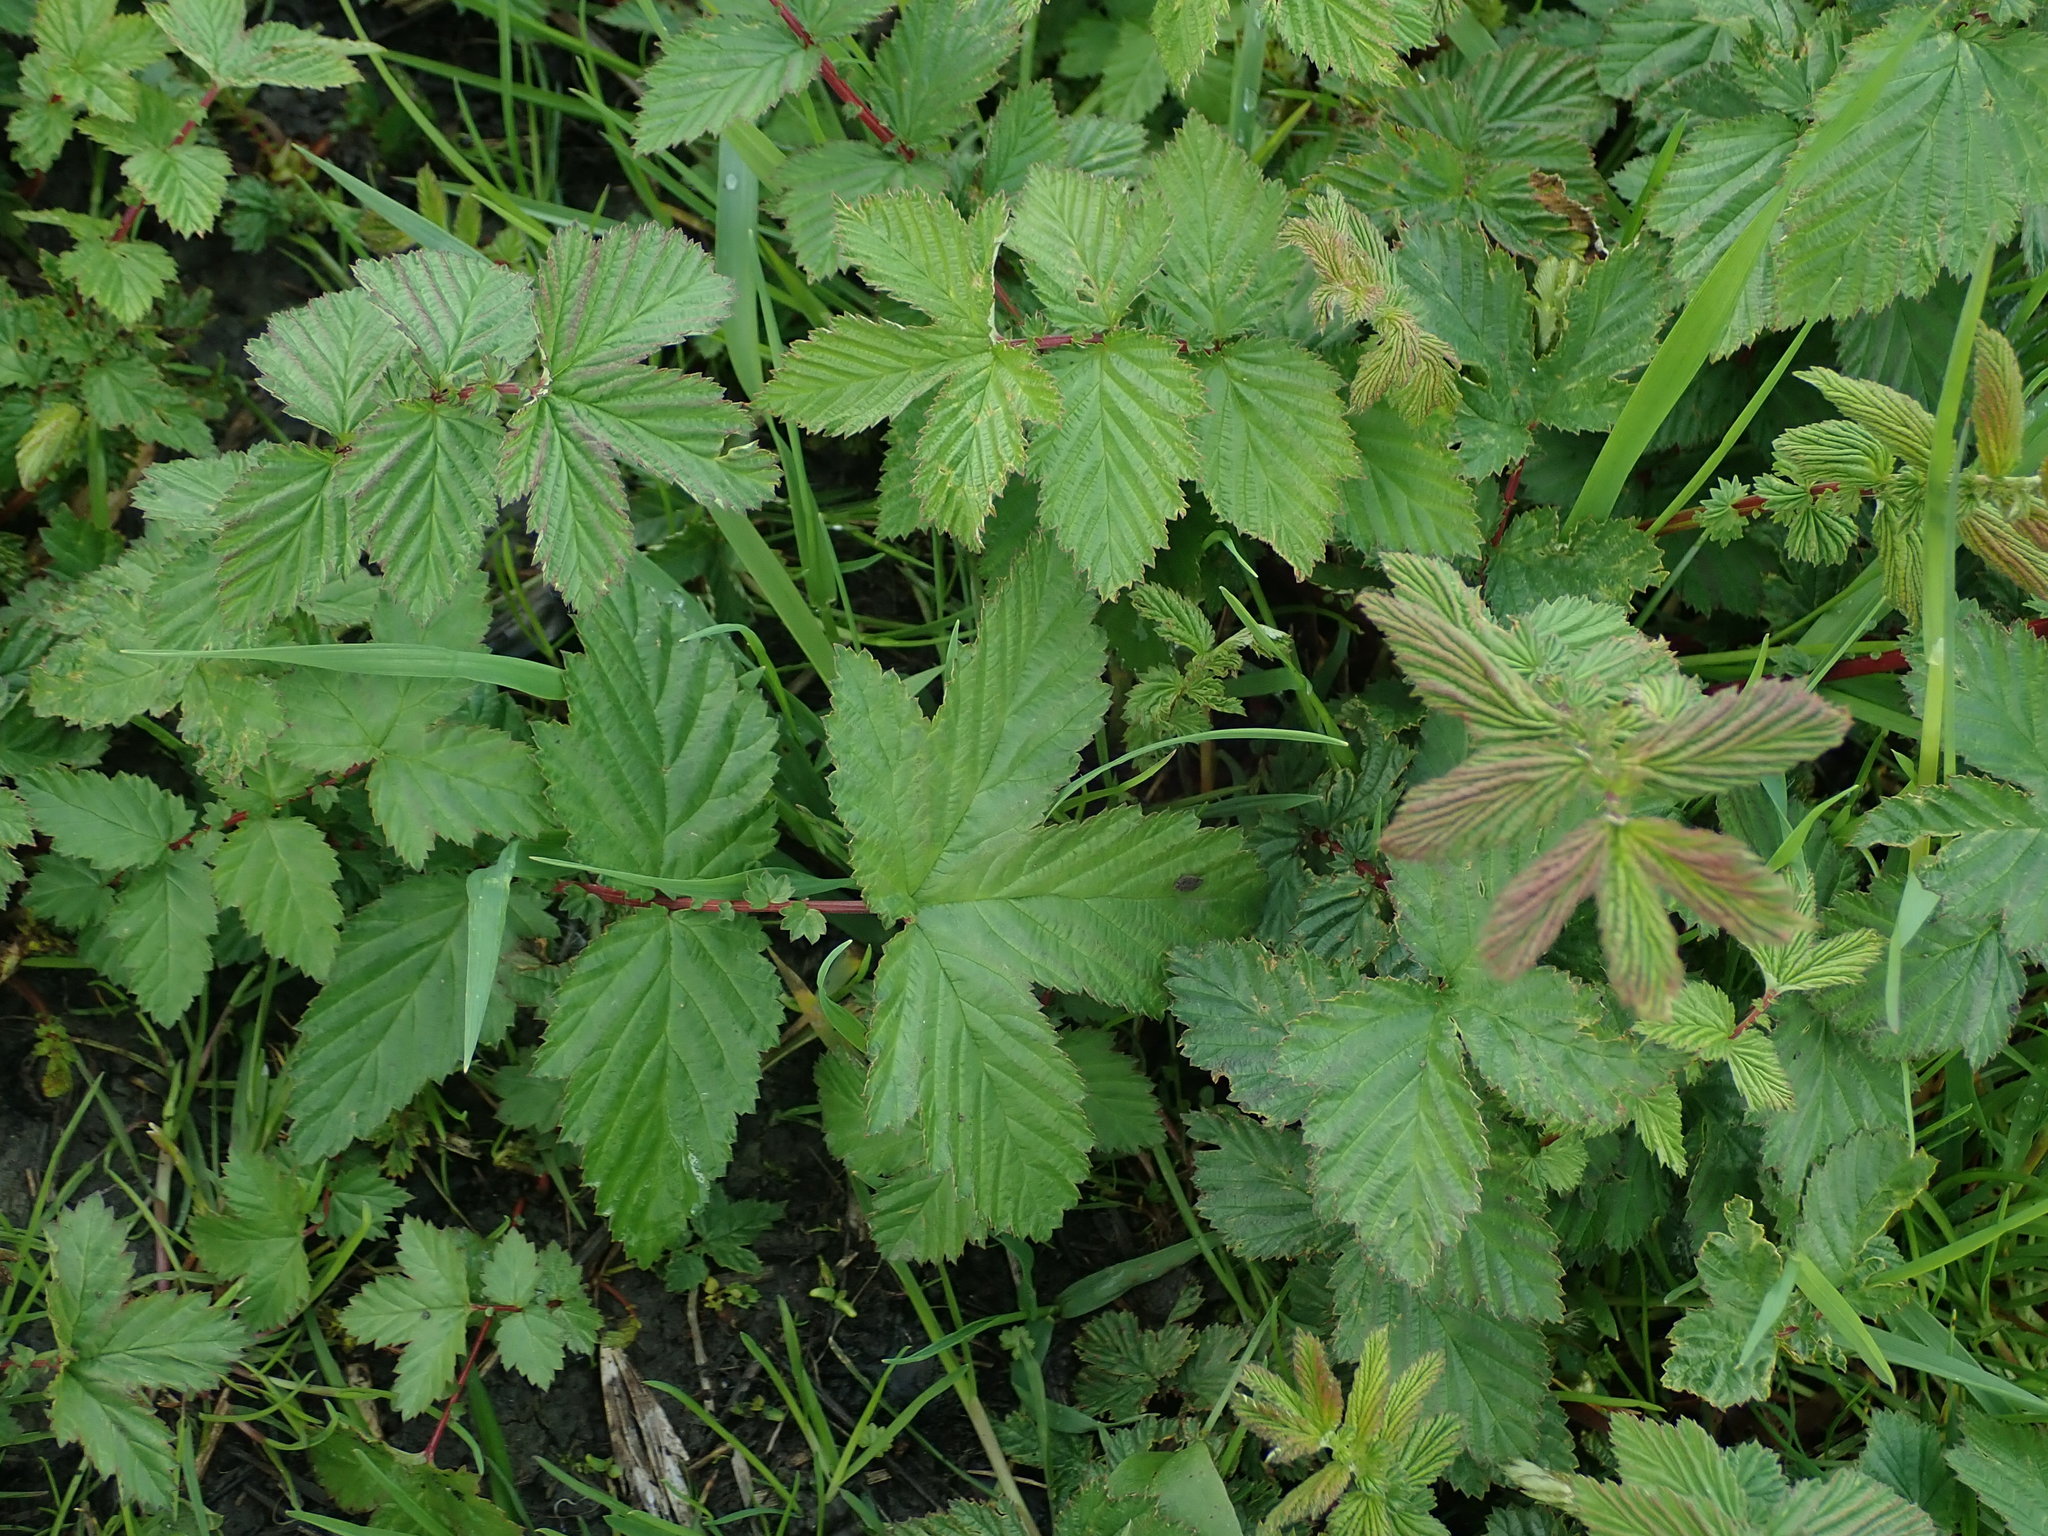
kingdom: Plantae
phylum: Tracheophyta
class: Magnoliopsida
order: Rosales
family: Rosaceae
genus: Filipendula
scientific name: Filipendula ulmaria
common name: Meadowsweet
